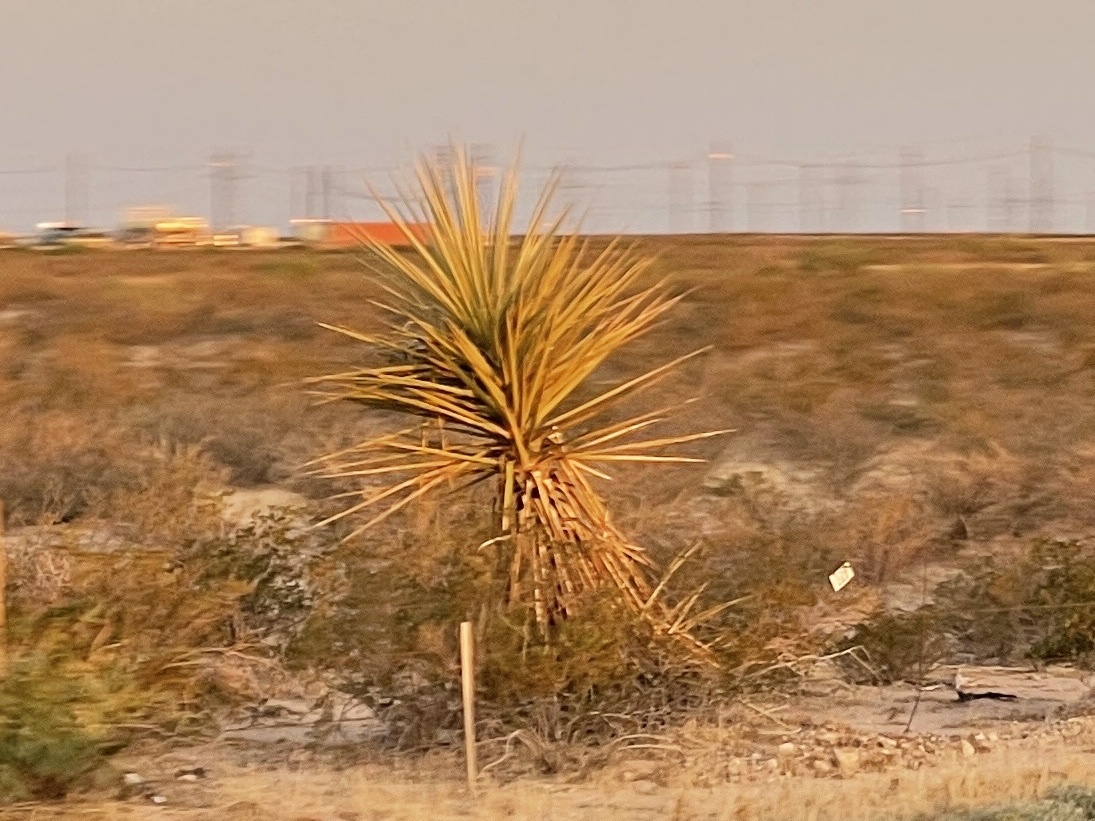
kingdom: Plantae
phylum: Tracheophyta
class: Liliopsida
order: Asparagales
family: Asparagaceae
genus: Yucca
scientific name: Yucca treculiana
